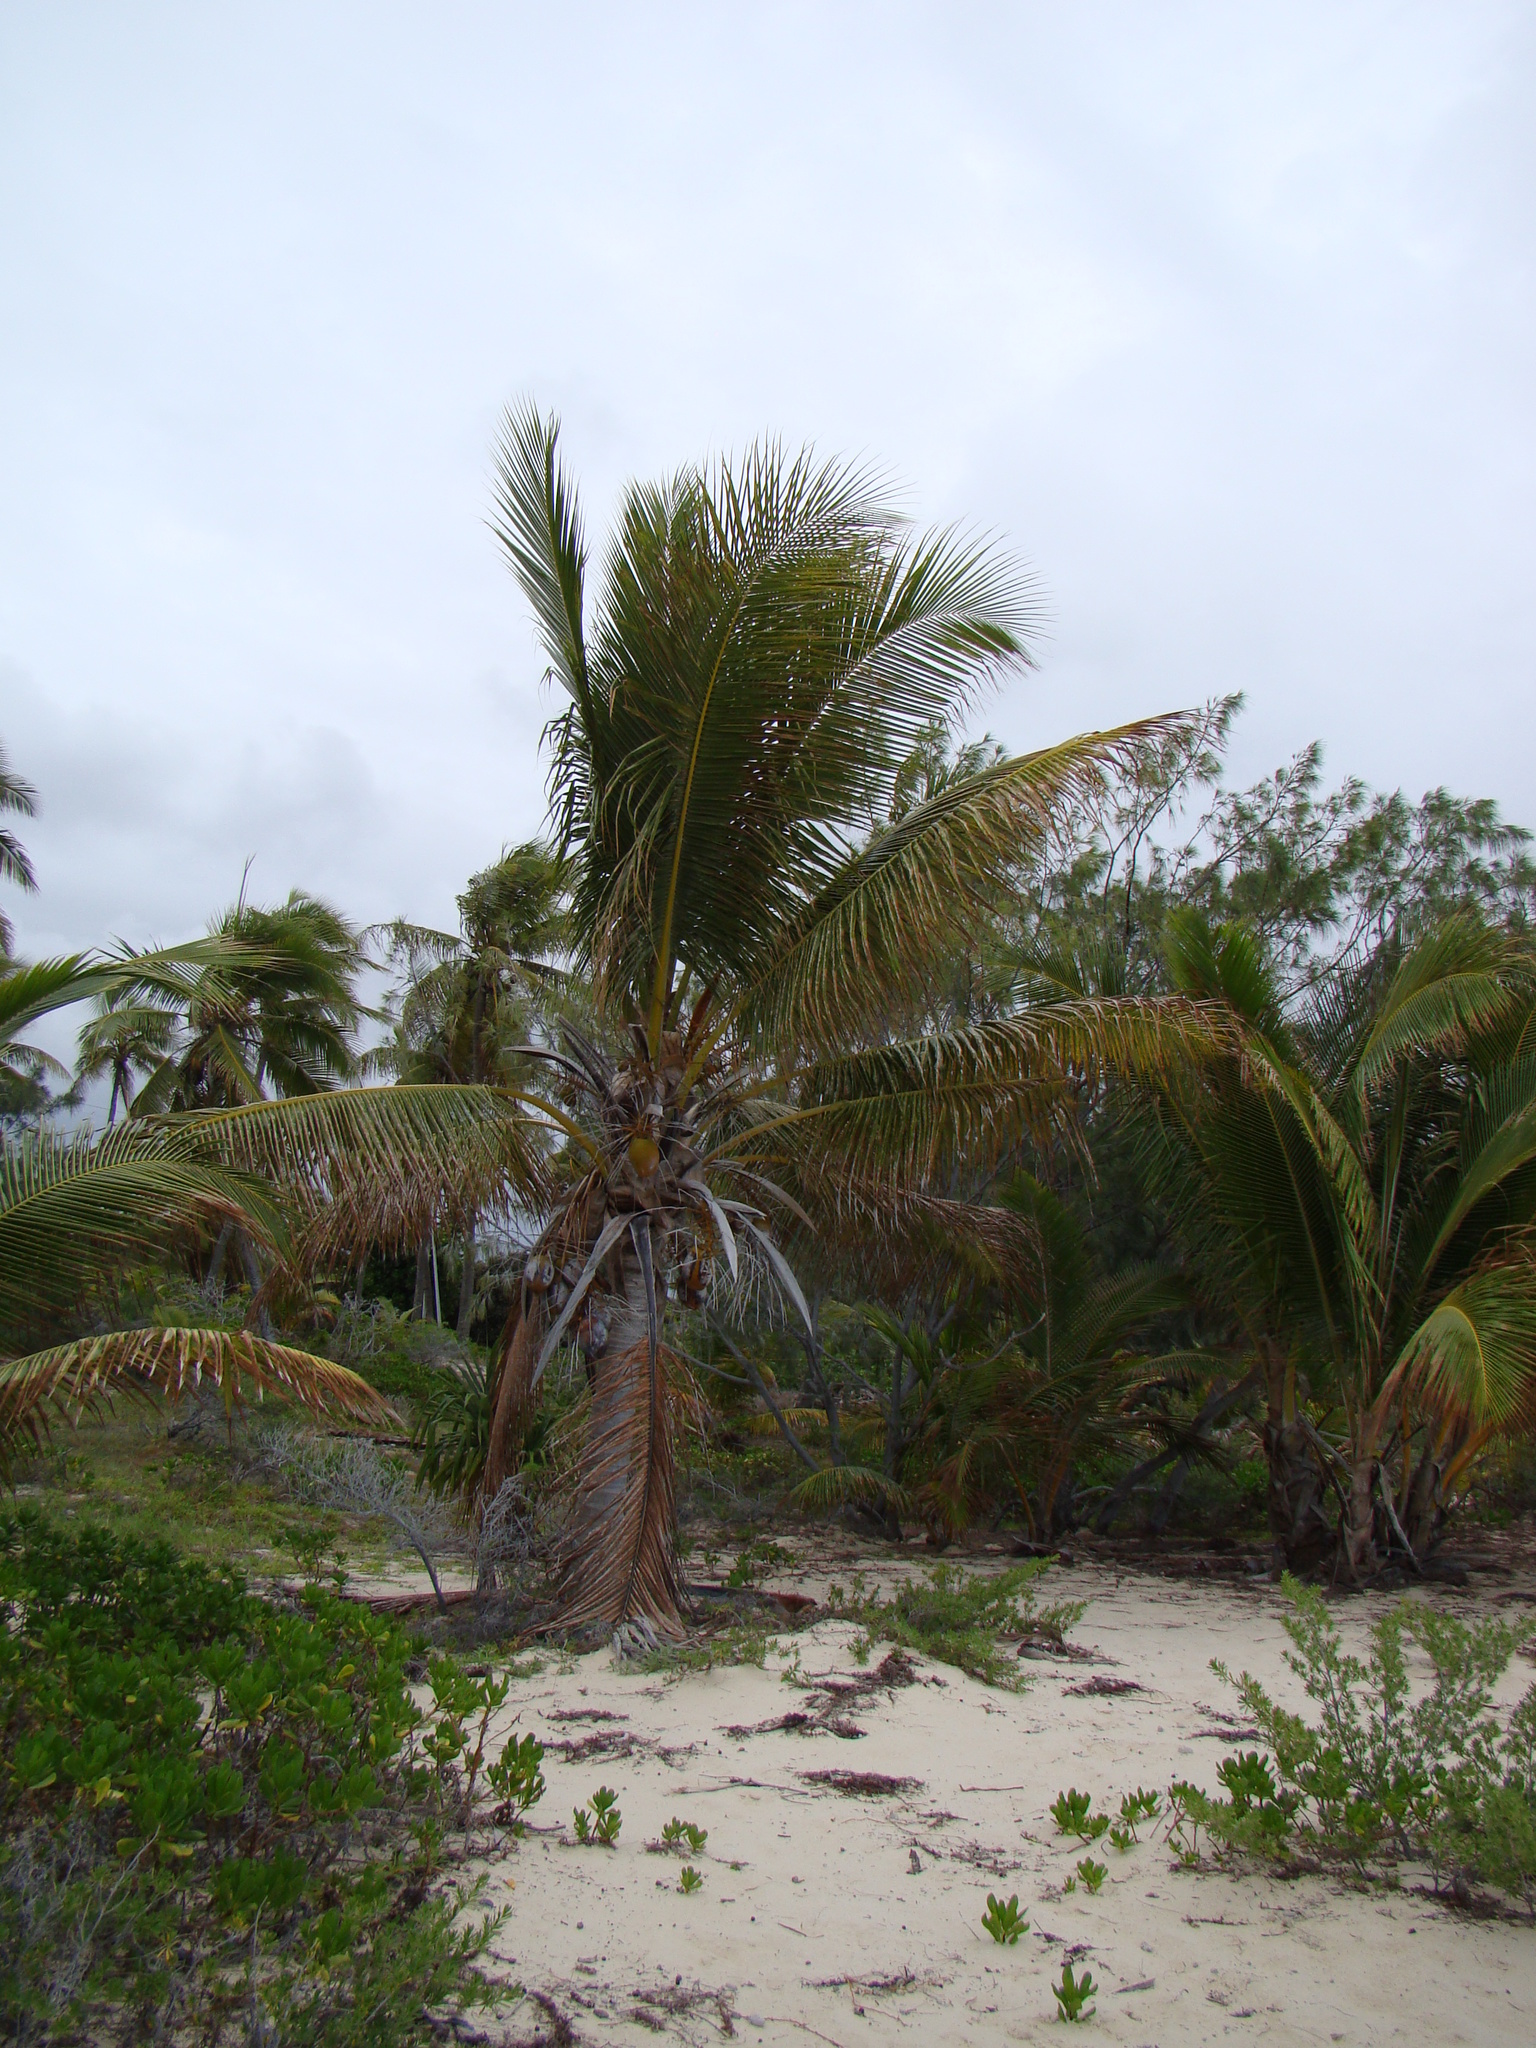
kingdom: Plantae
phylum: Tracheophyta
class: Liliopsida
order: Arecales
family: Arecaceae
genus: Cocos
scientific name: Cocos nucifera
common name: Coconut palm
